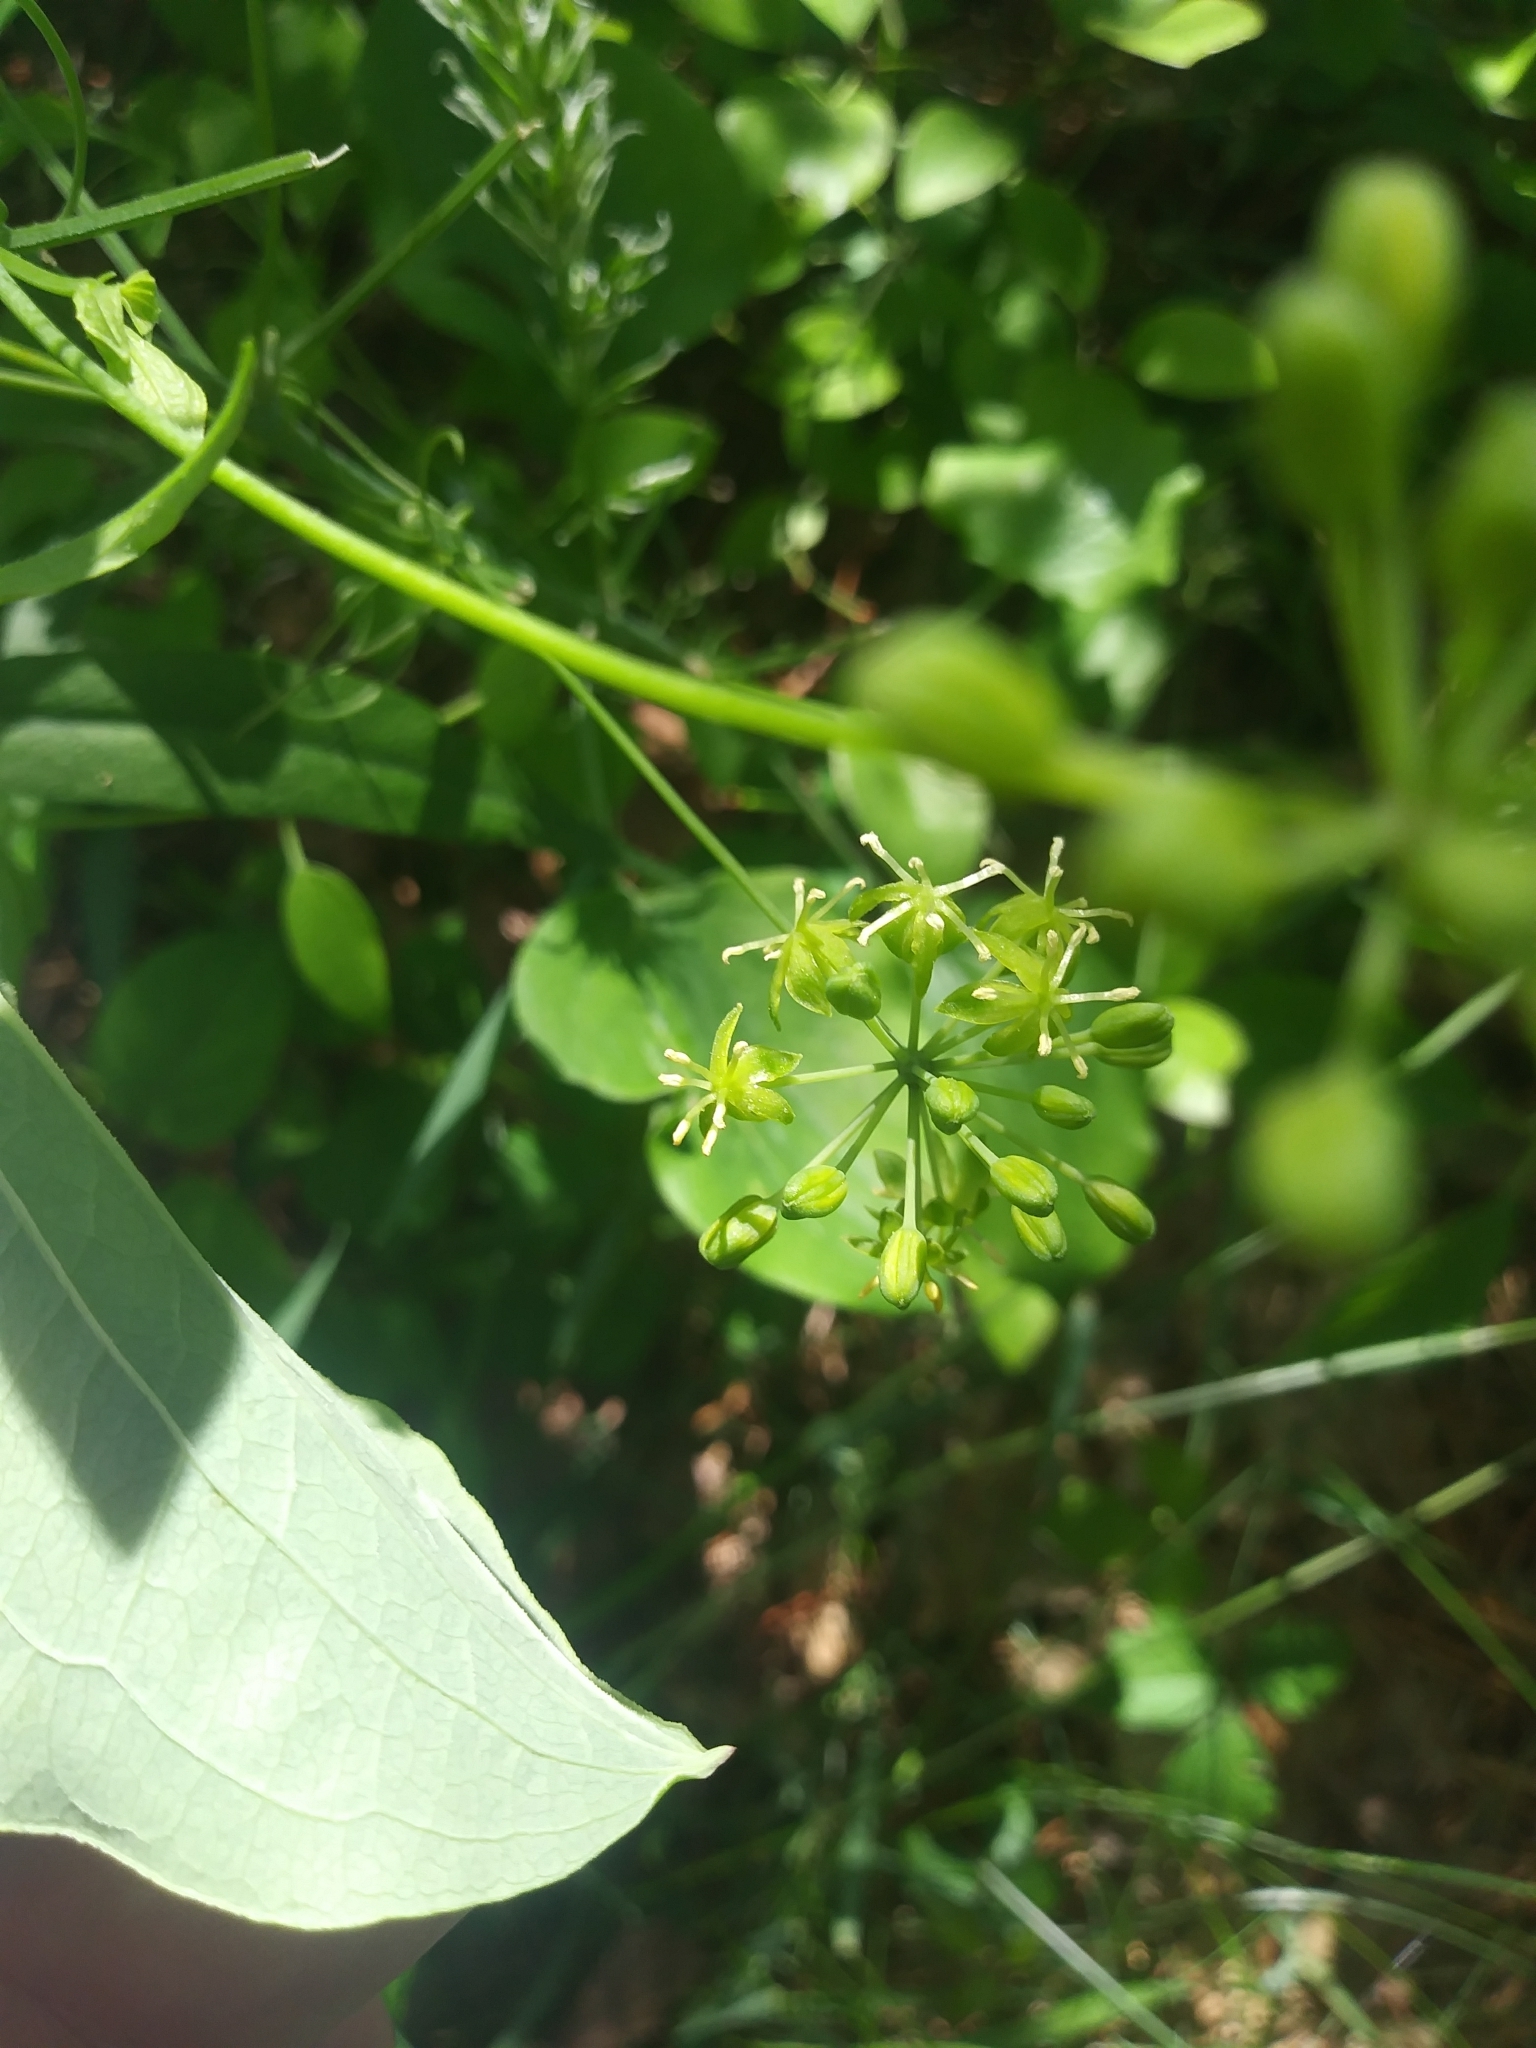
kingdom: Plantae
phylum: Tracheophyta
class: Liliopsida
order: Liliales
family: Smilacaceae
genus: Smilax
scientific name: Smilax herbacea
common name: Jacob's-ladder
